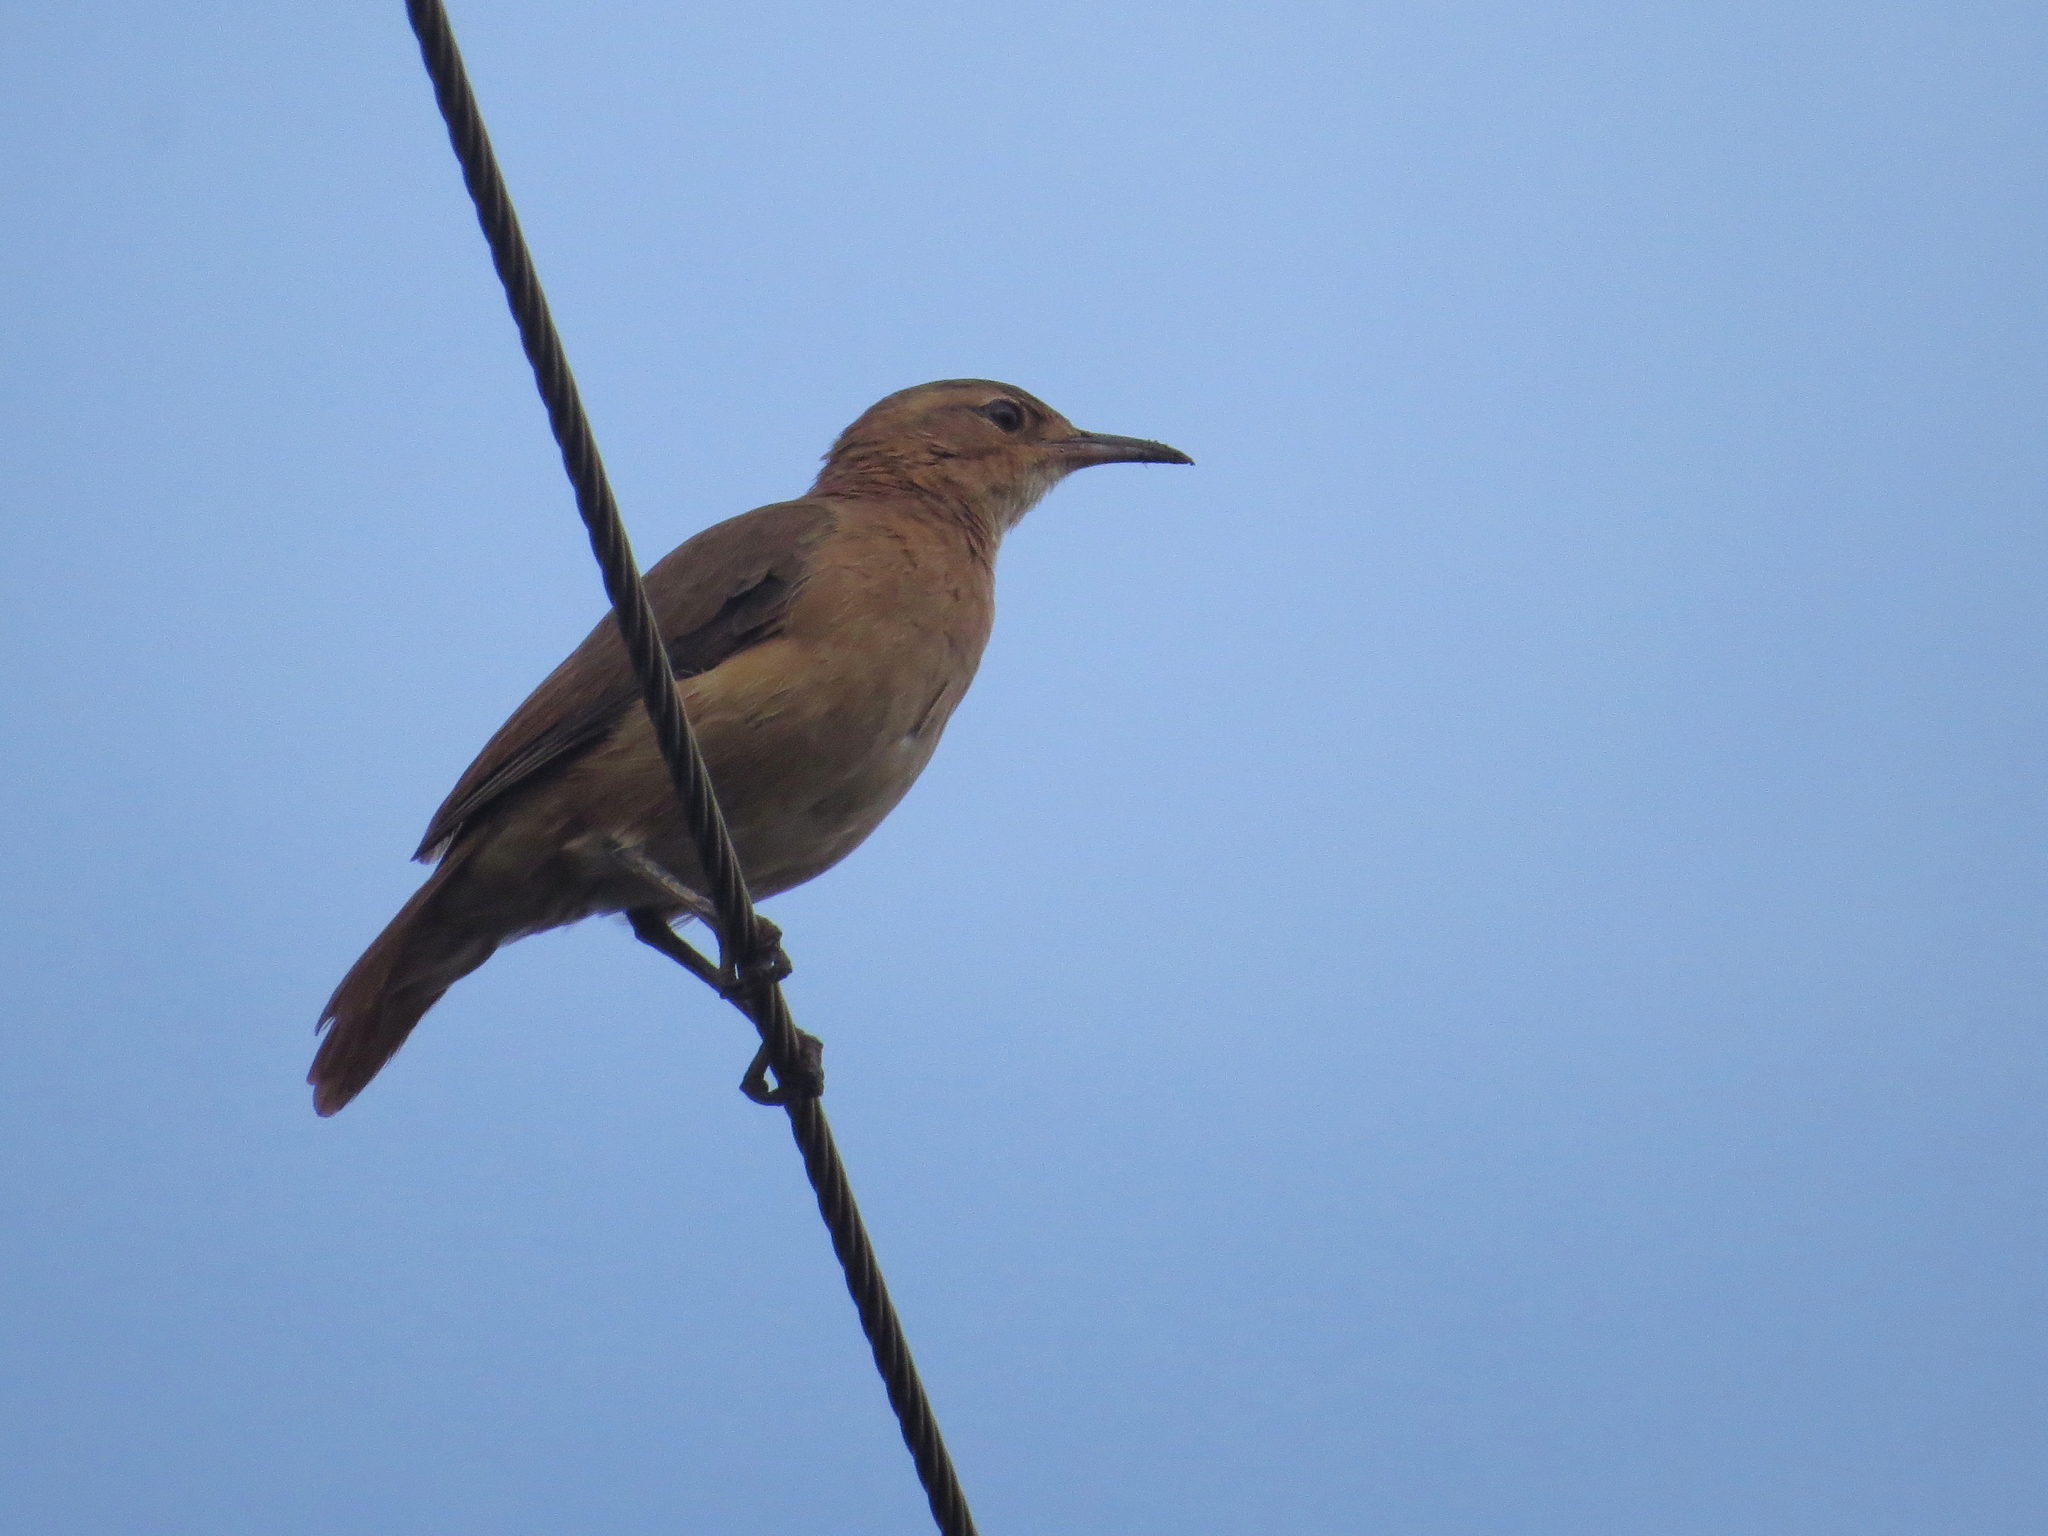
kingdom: Animalia
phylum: Chordata
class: Aves
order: Passeriformes
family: Furnariidae
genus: Furnarius
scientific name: Furnarius rufus
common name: Rufous hornero
